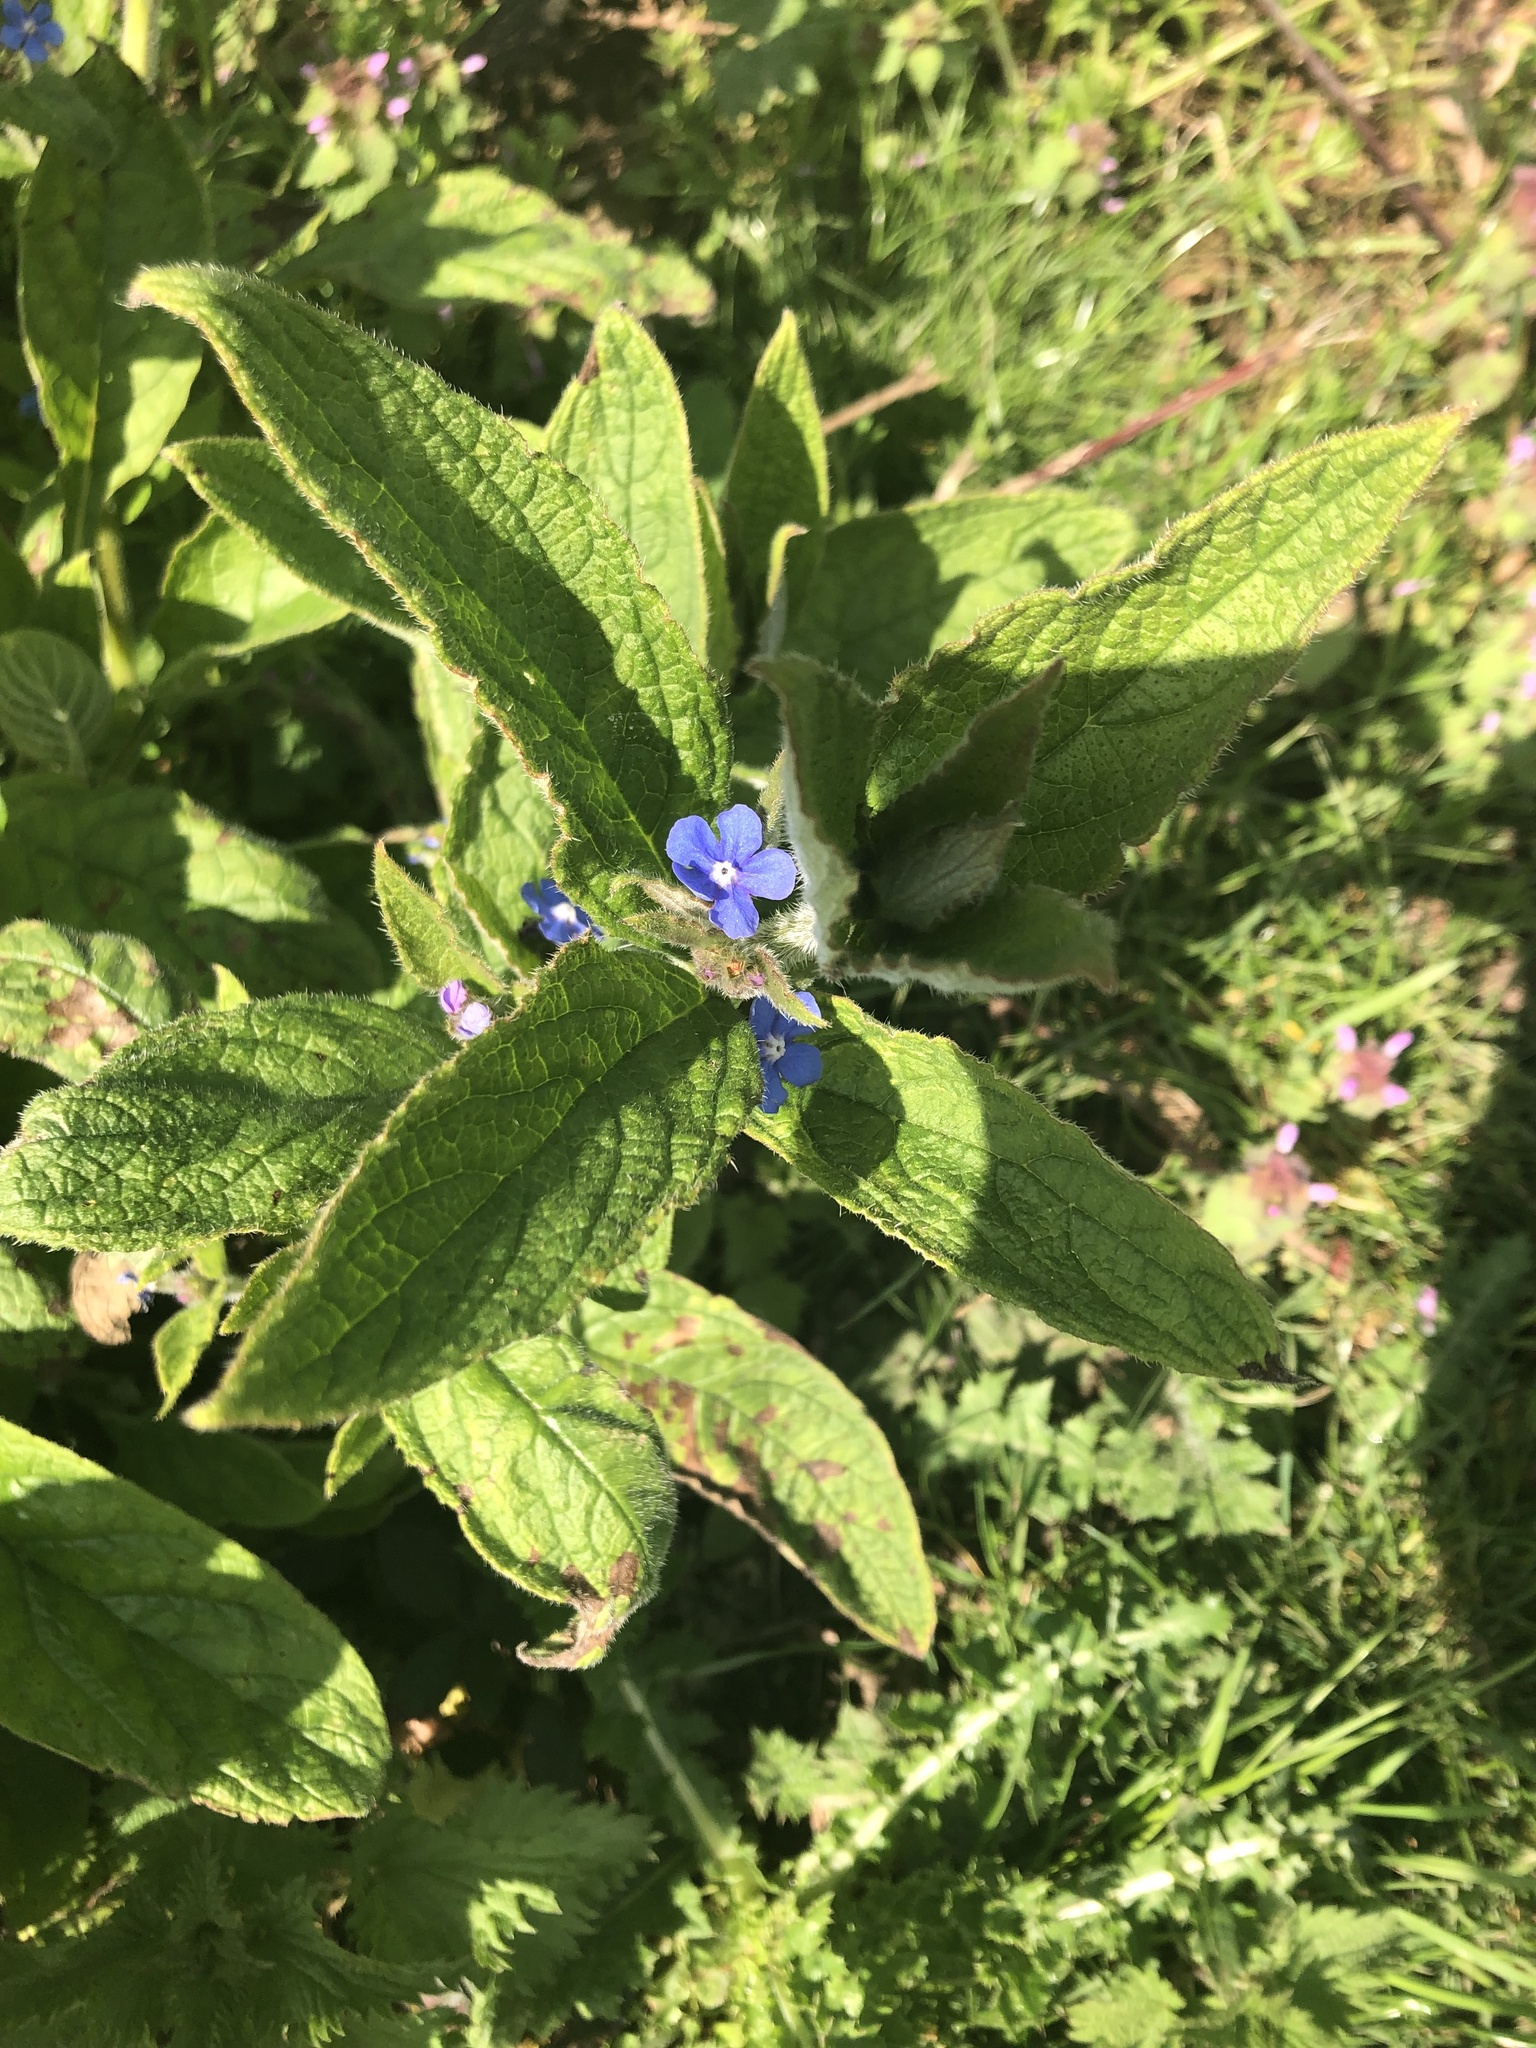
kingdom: Plantae
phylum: Tracheophyta
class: Magnoliopsida
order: Boraginales
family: Boraginaceae
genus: Pentaglottis
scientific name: Pentaglottis sempervirens
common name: Green alkanet
